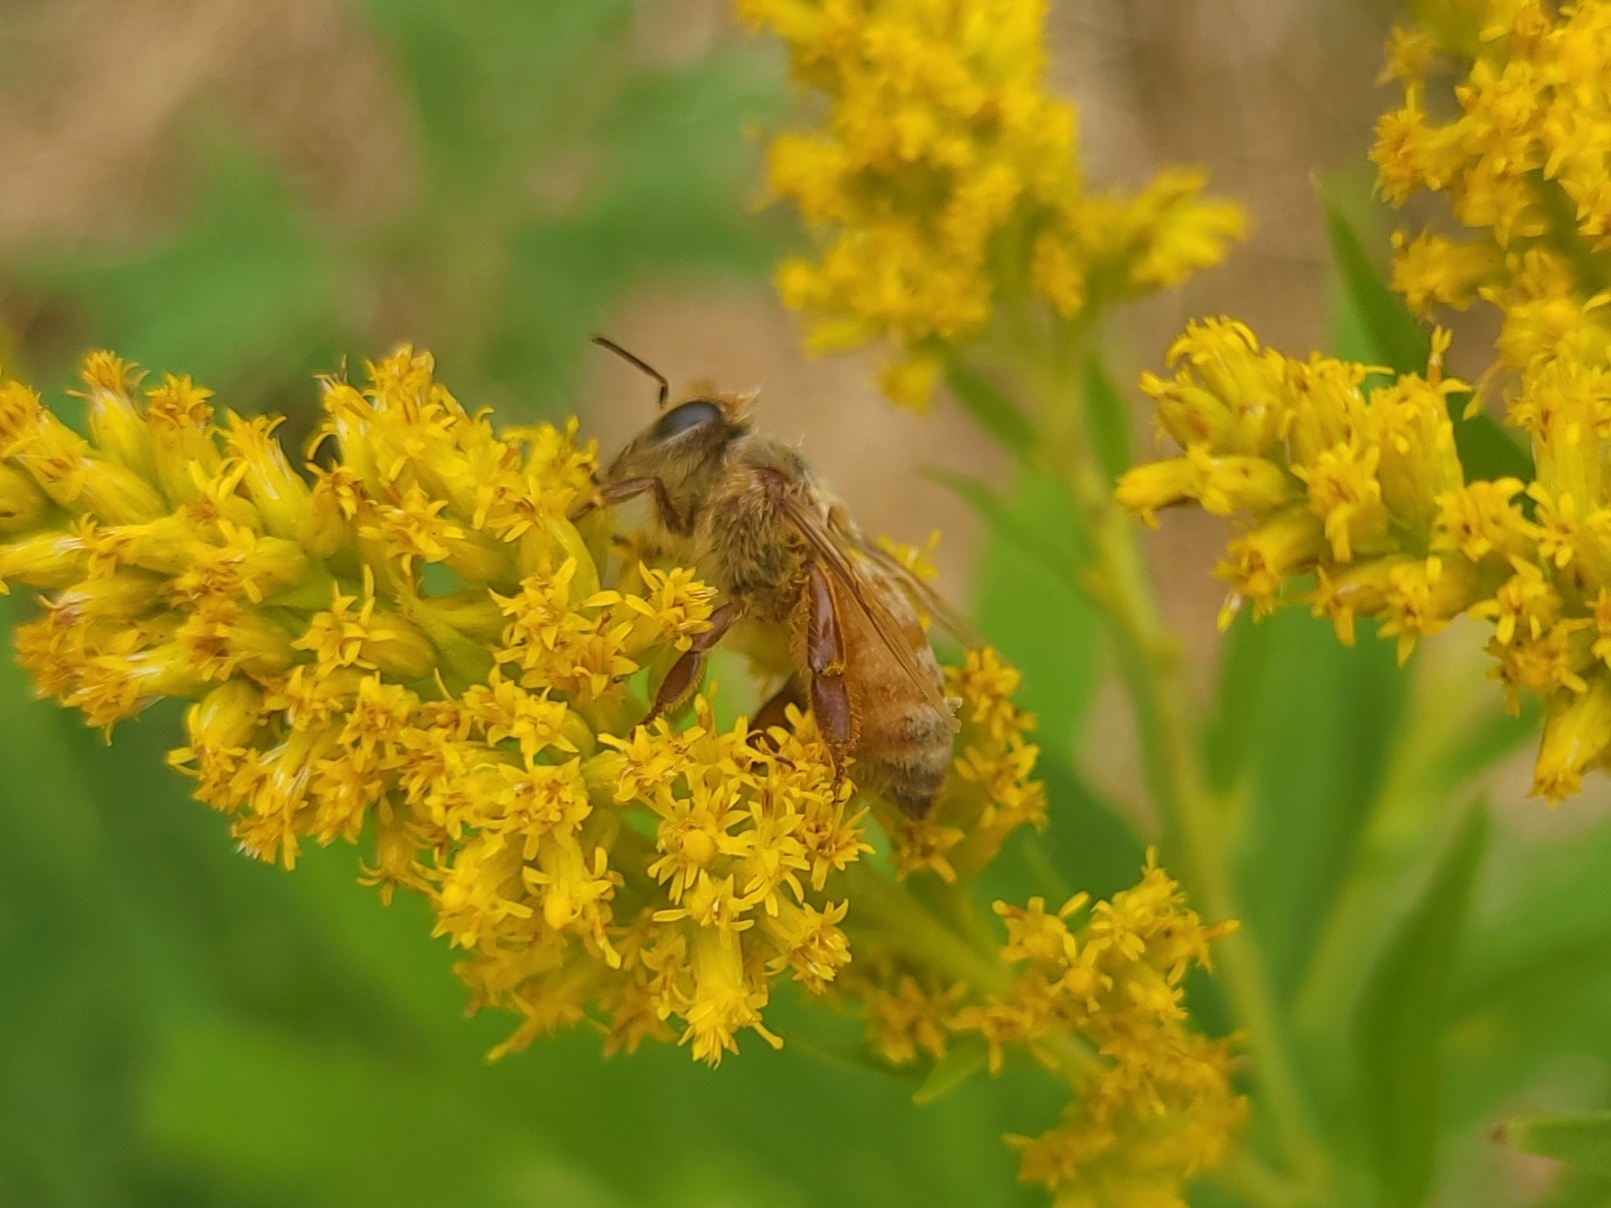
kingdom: Animalia
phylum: Arthropoda
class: Insecta
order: Hymenoptera
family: Apidae
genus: Apis
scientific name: Apis mellifera
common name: Honey bee
